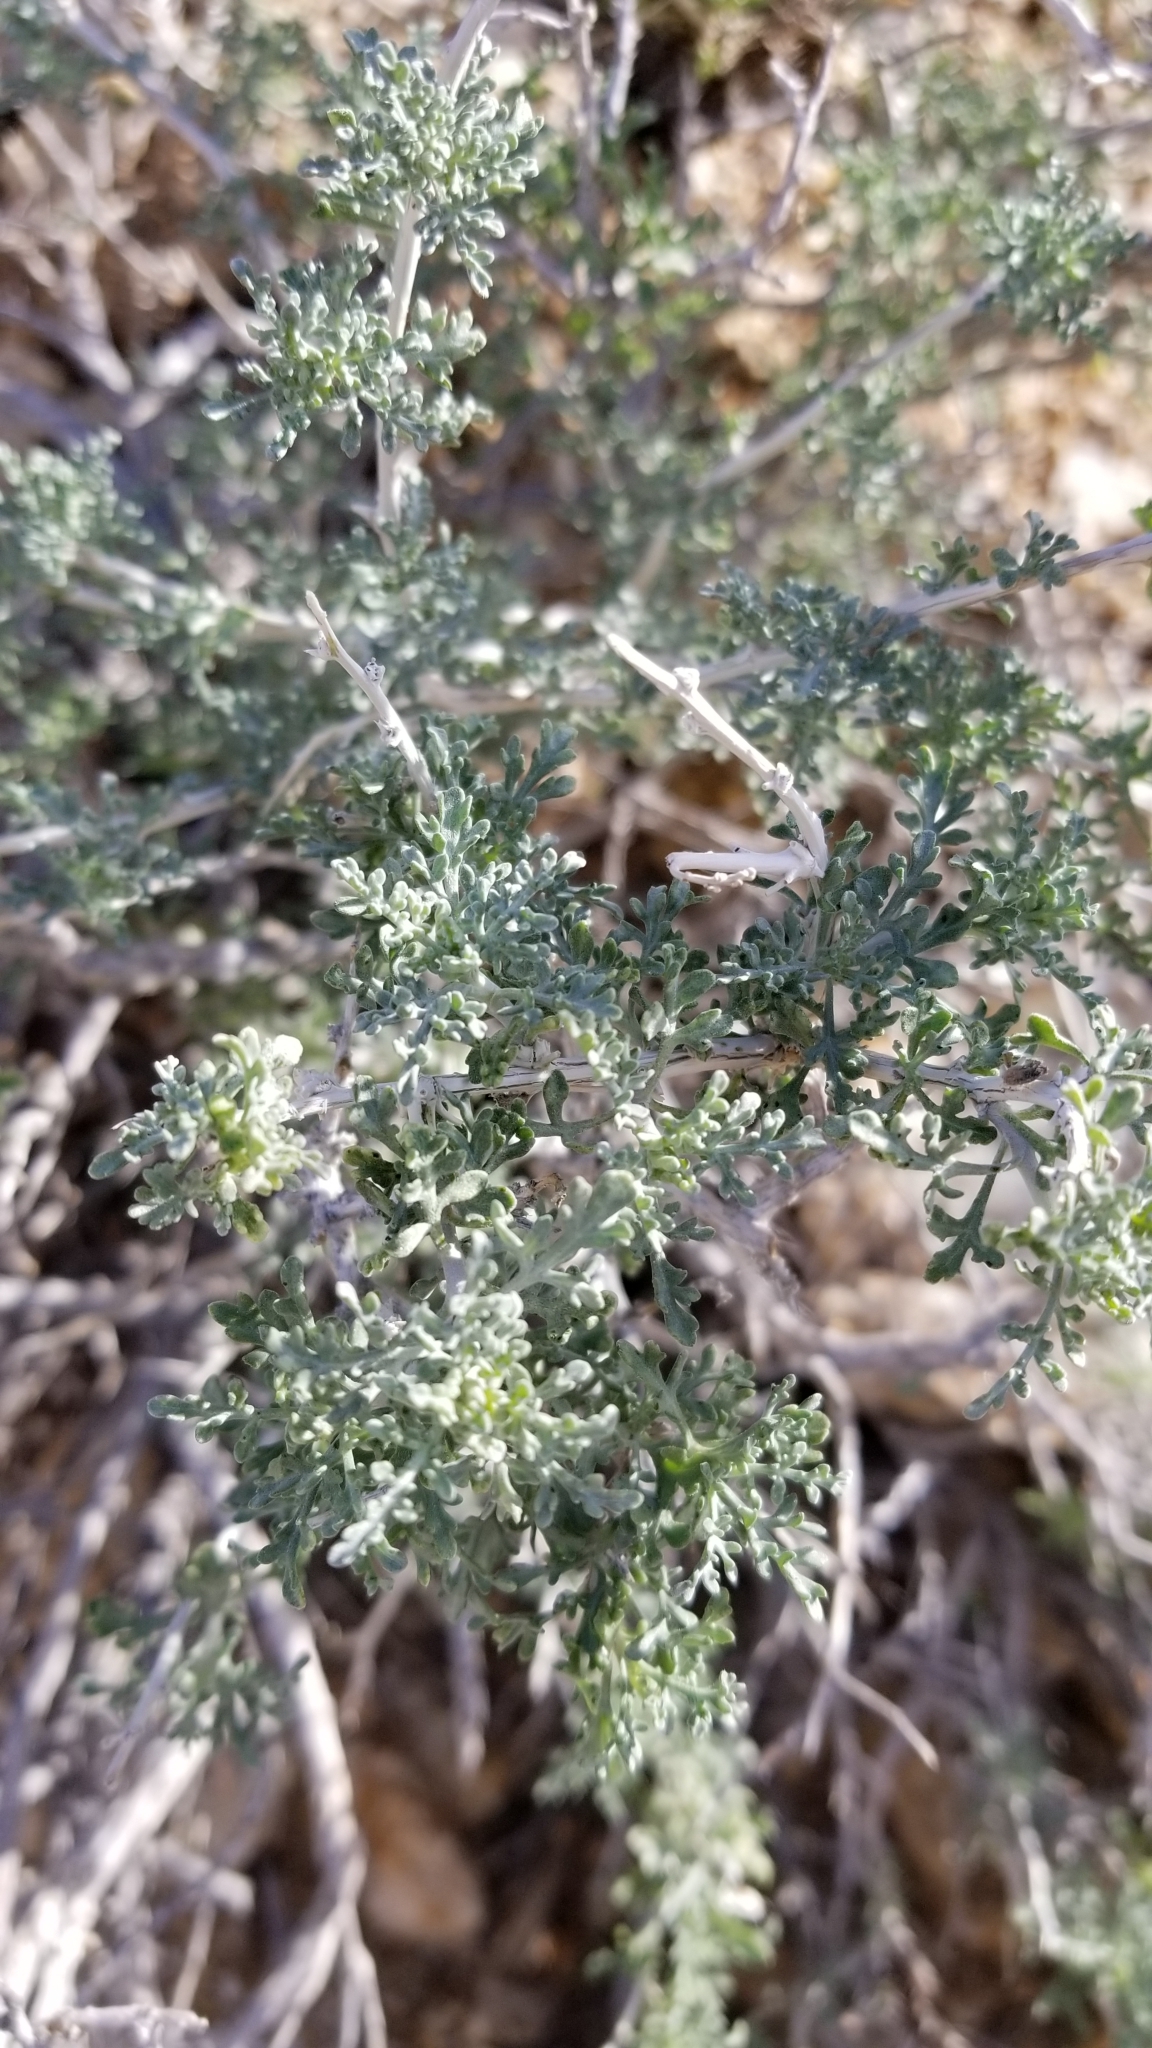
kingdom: Plantae
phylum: Tracheophyta
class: Magnoliopsida
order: Asterales
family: Asteraceae
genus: Ambrosia
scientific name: Ambrosia dumosa
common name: Bur-sage
